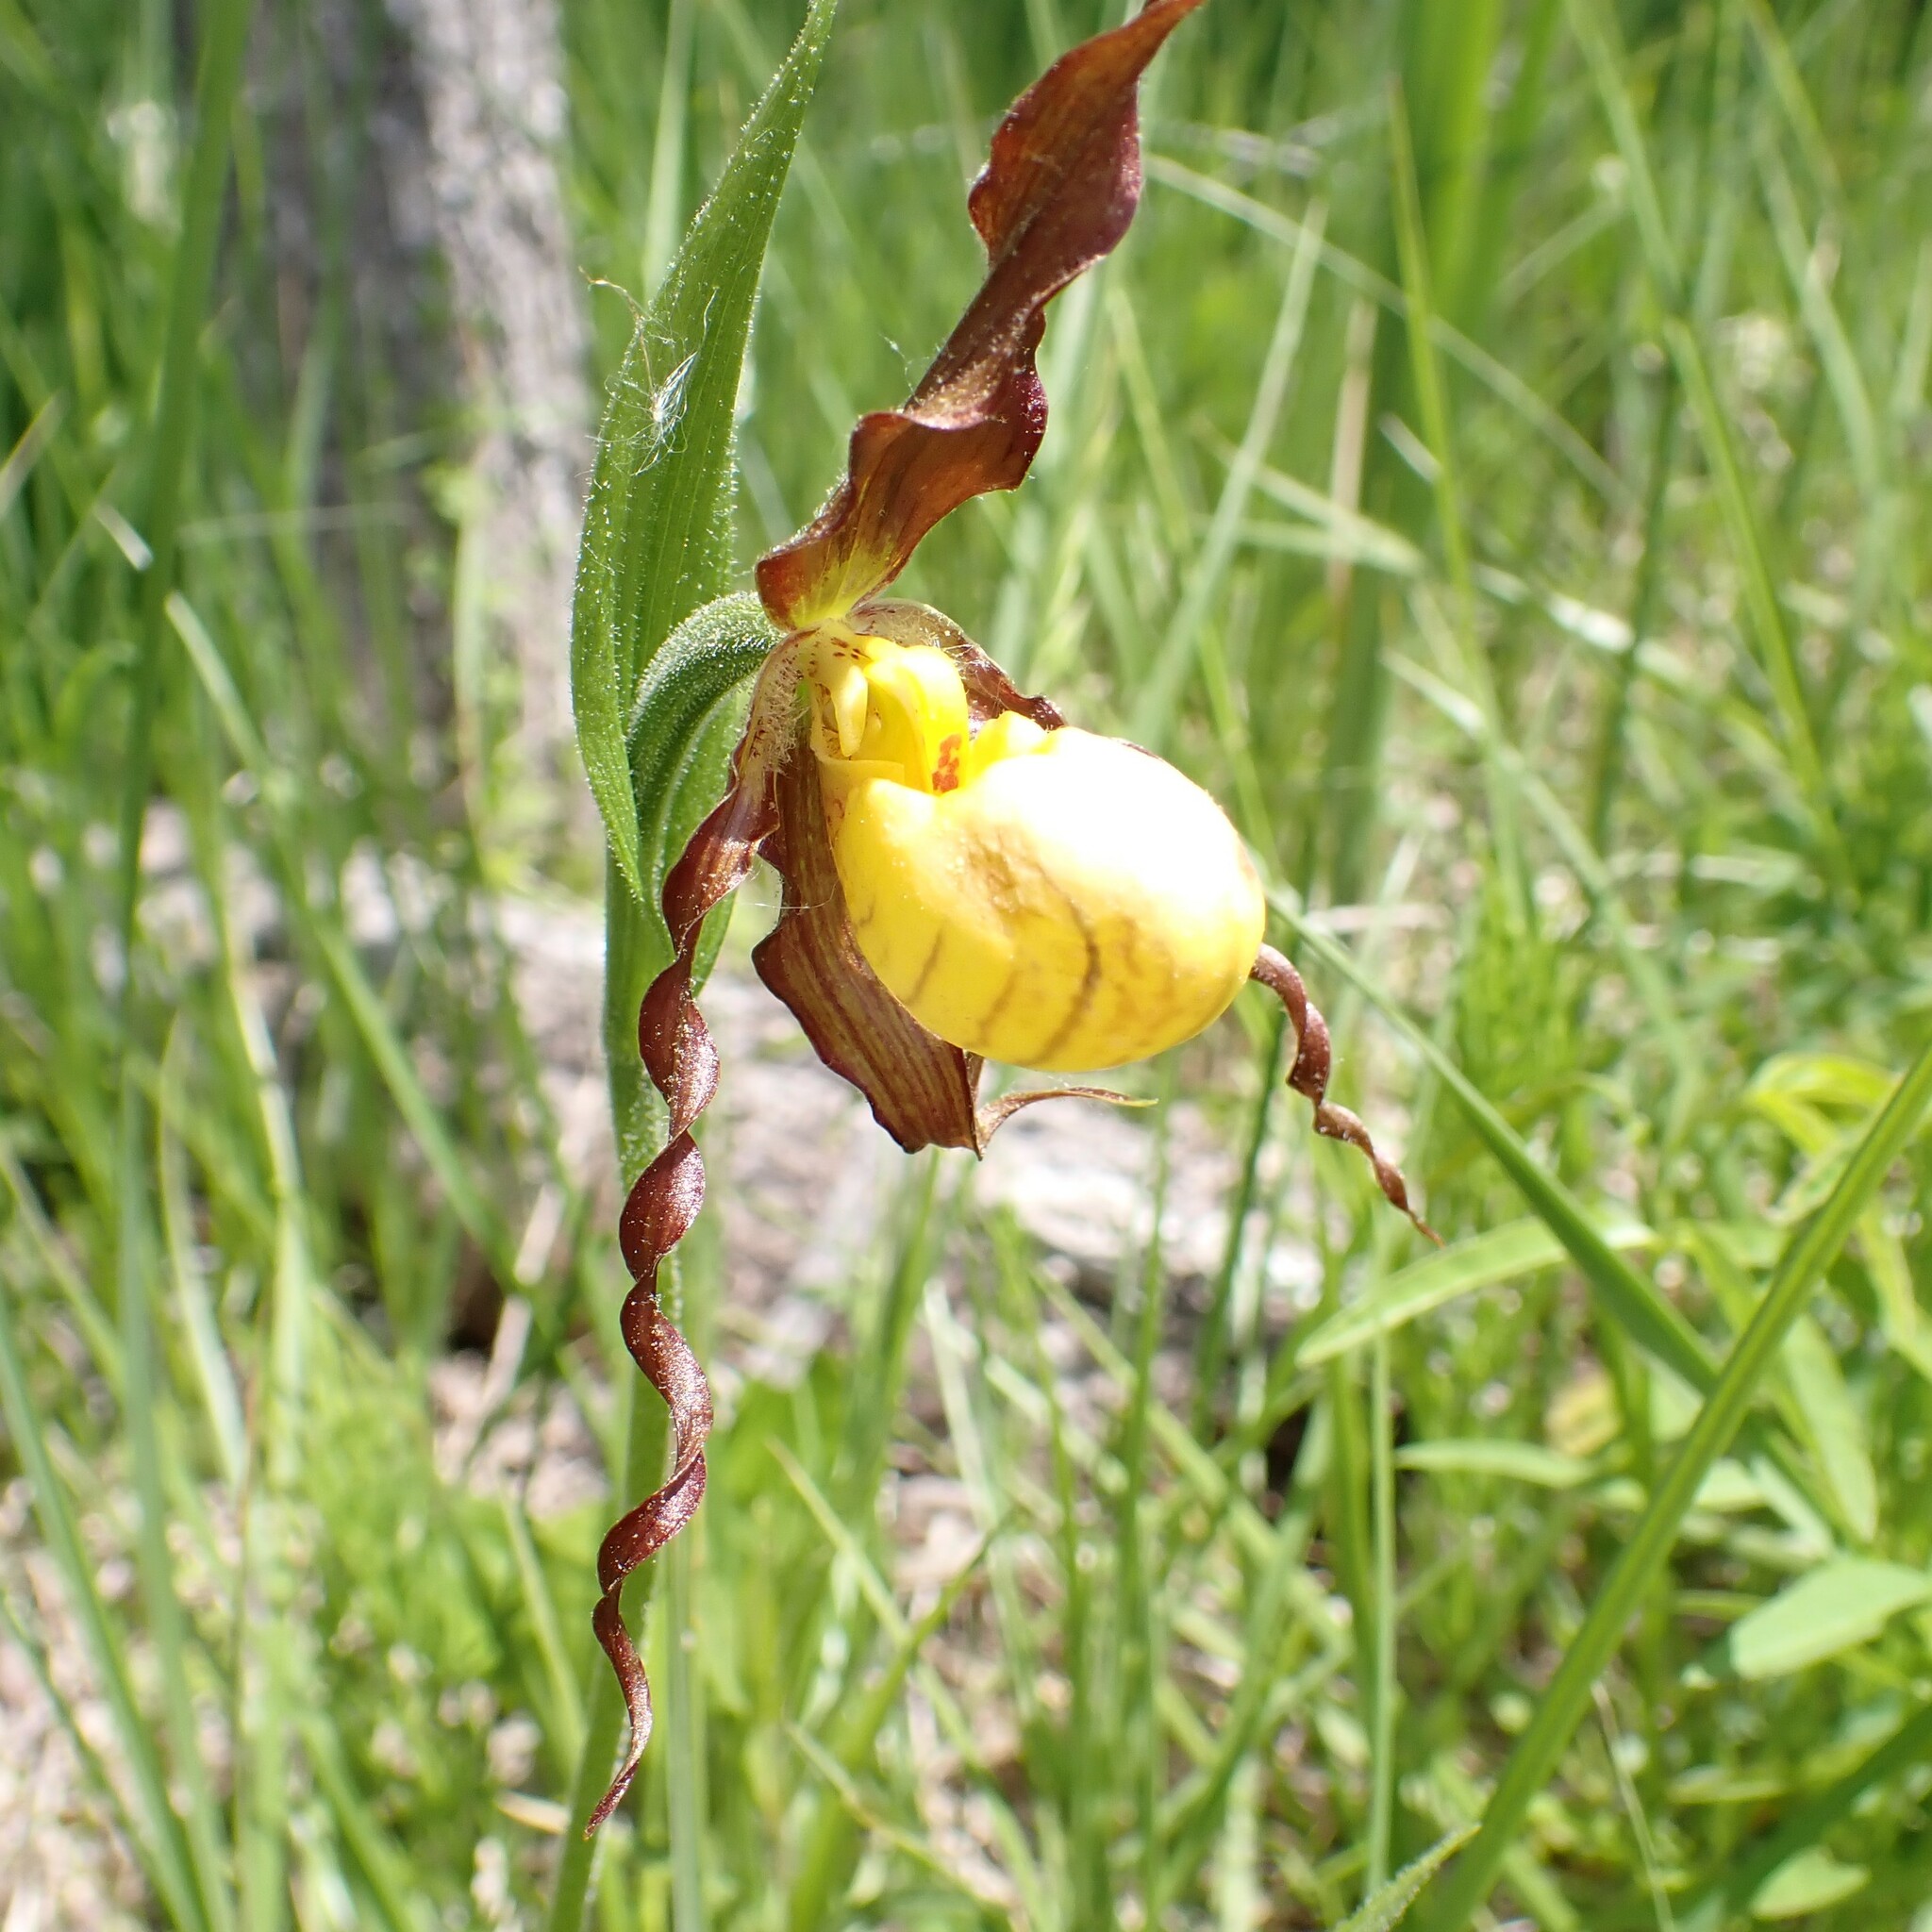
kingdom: Plantae
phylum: Tracheophyta
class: Liliopsida
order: Asparagales
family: Orchidaceae
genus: Cypripedium
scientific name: Cypripedium parviflorum
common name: American yellow lady's-slipper
